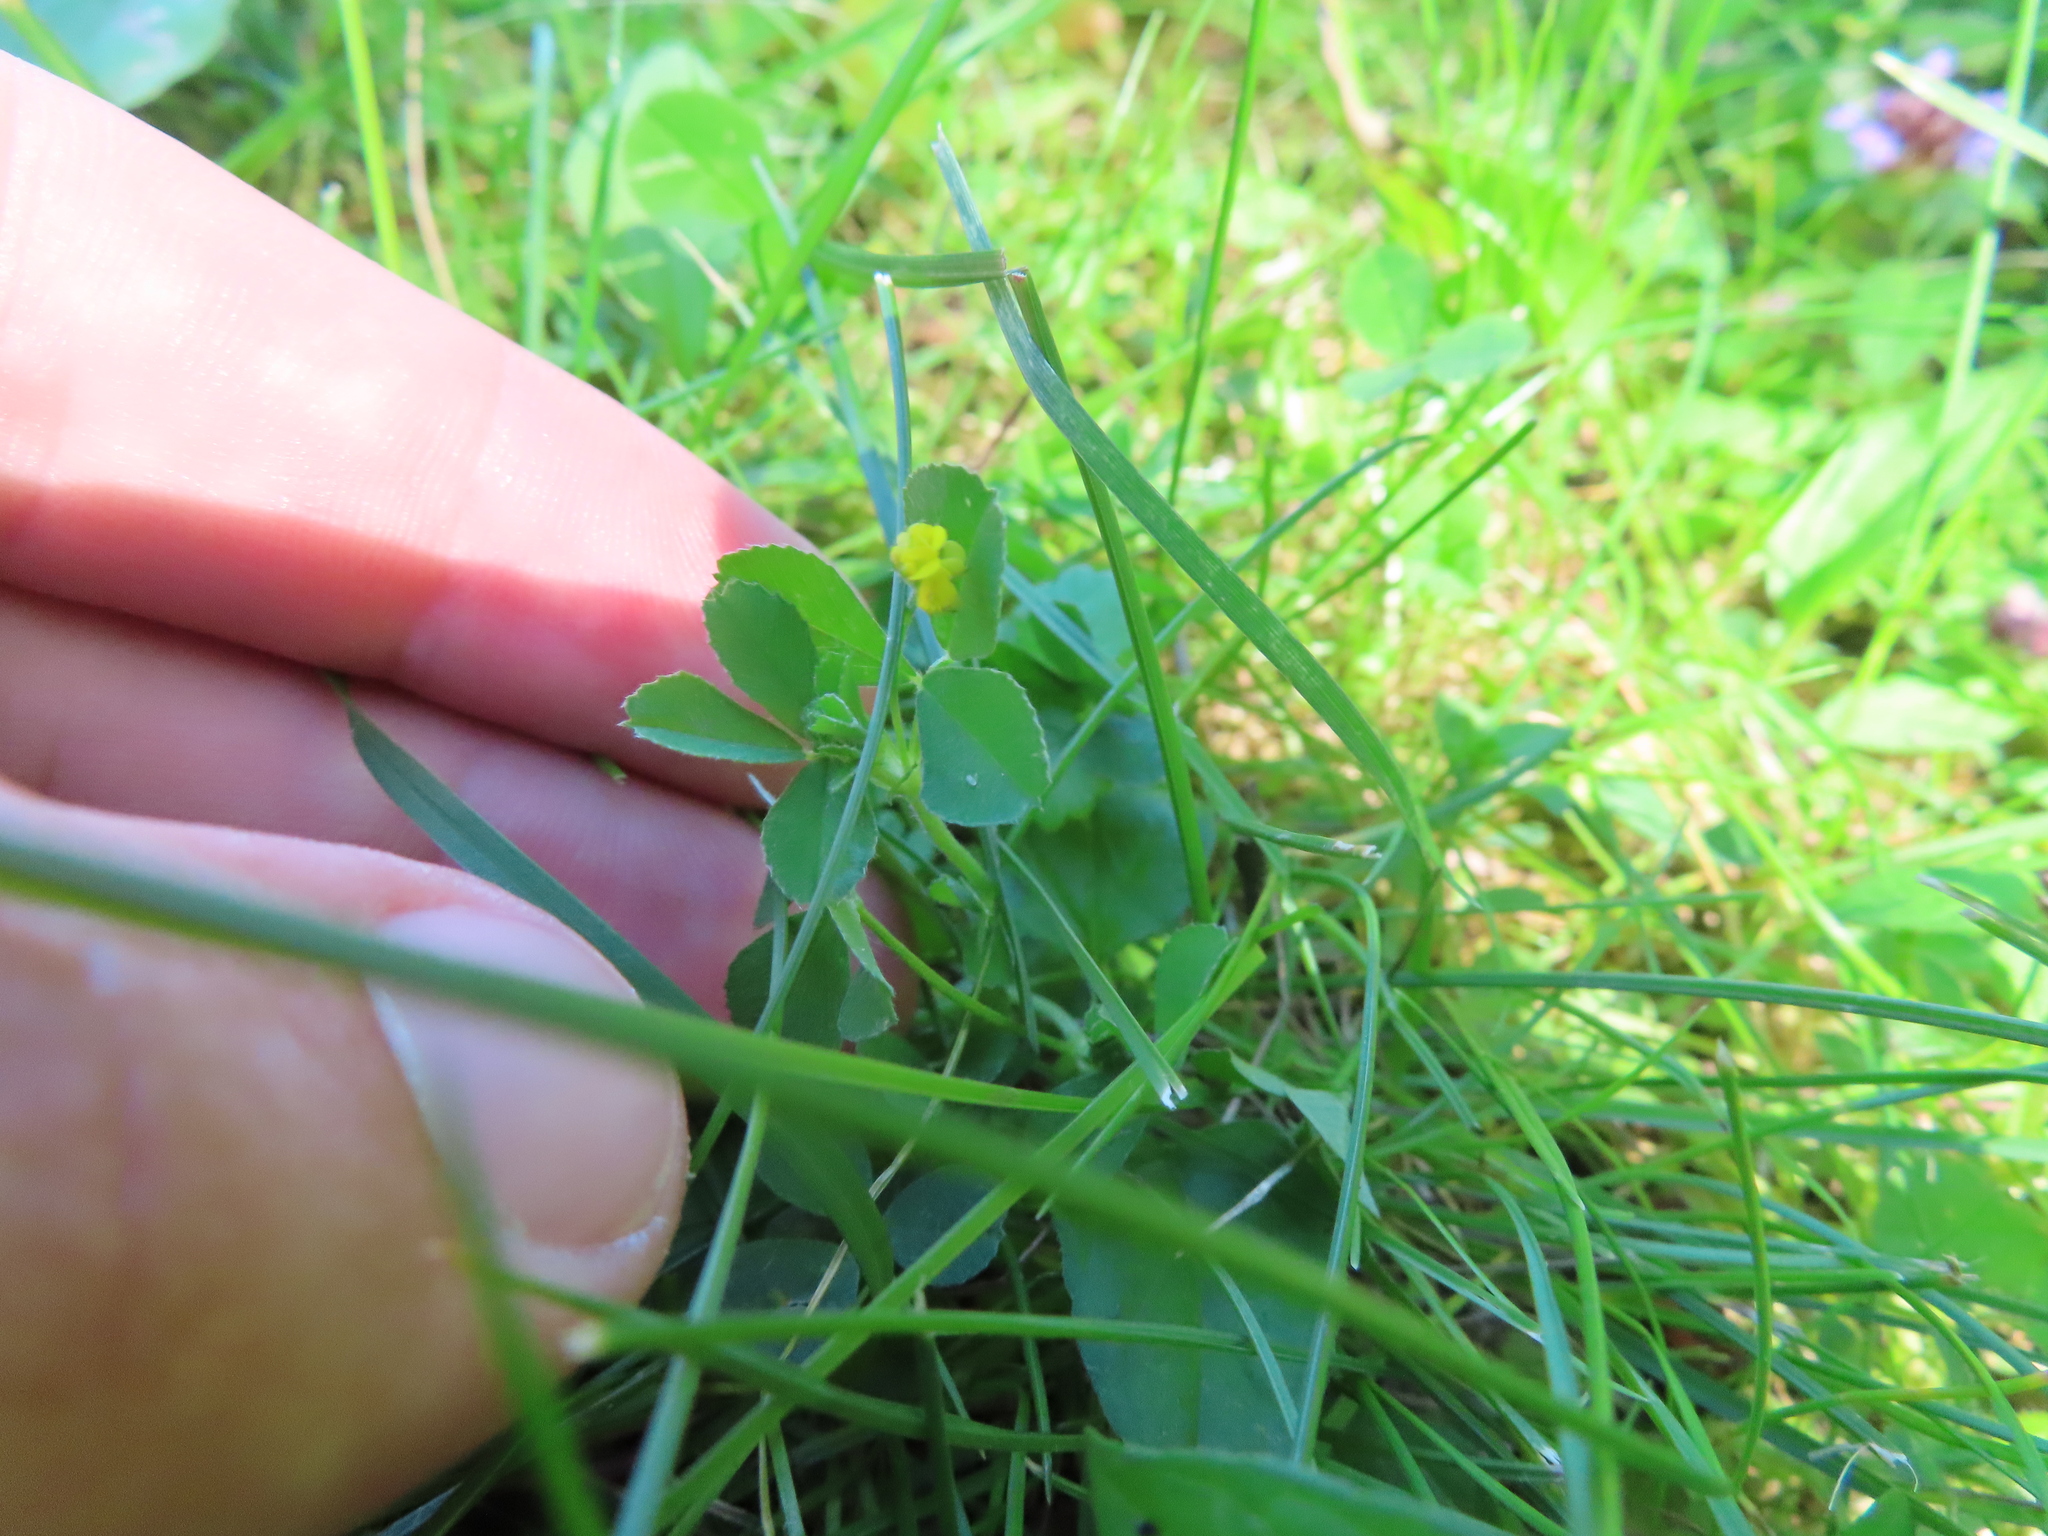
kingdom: Plantae
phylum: Tracheophyta
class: Magnoliopsida
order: Fabales
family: Fabaceae
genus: Medicago
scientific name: Medicago lupulina
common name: Black medick
